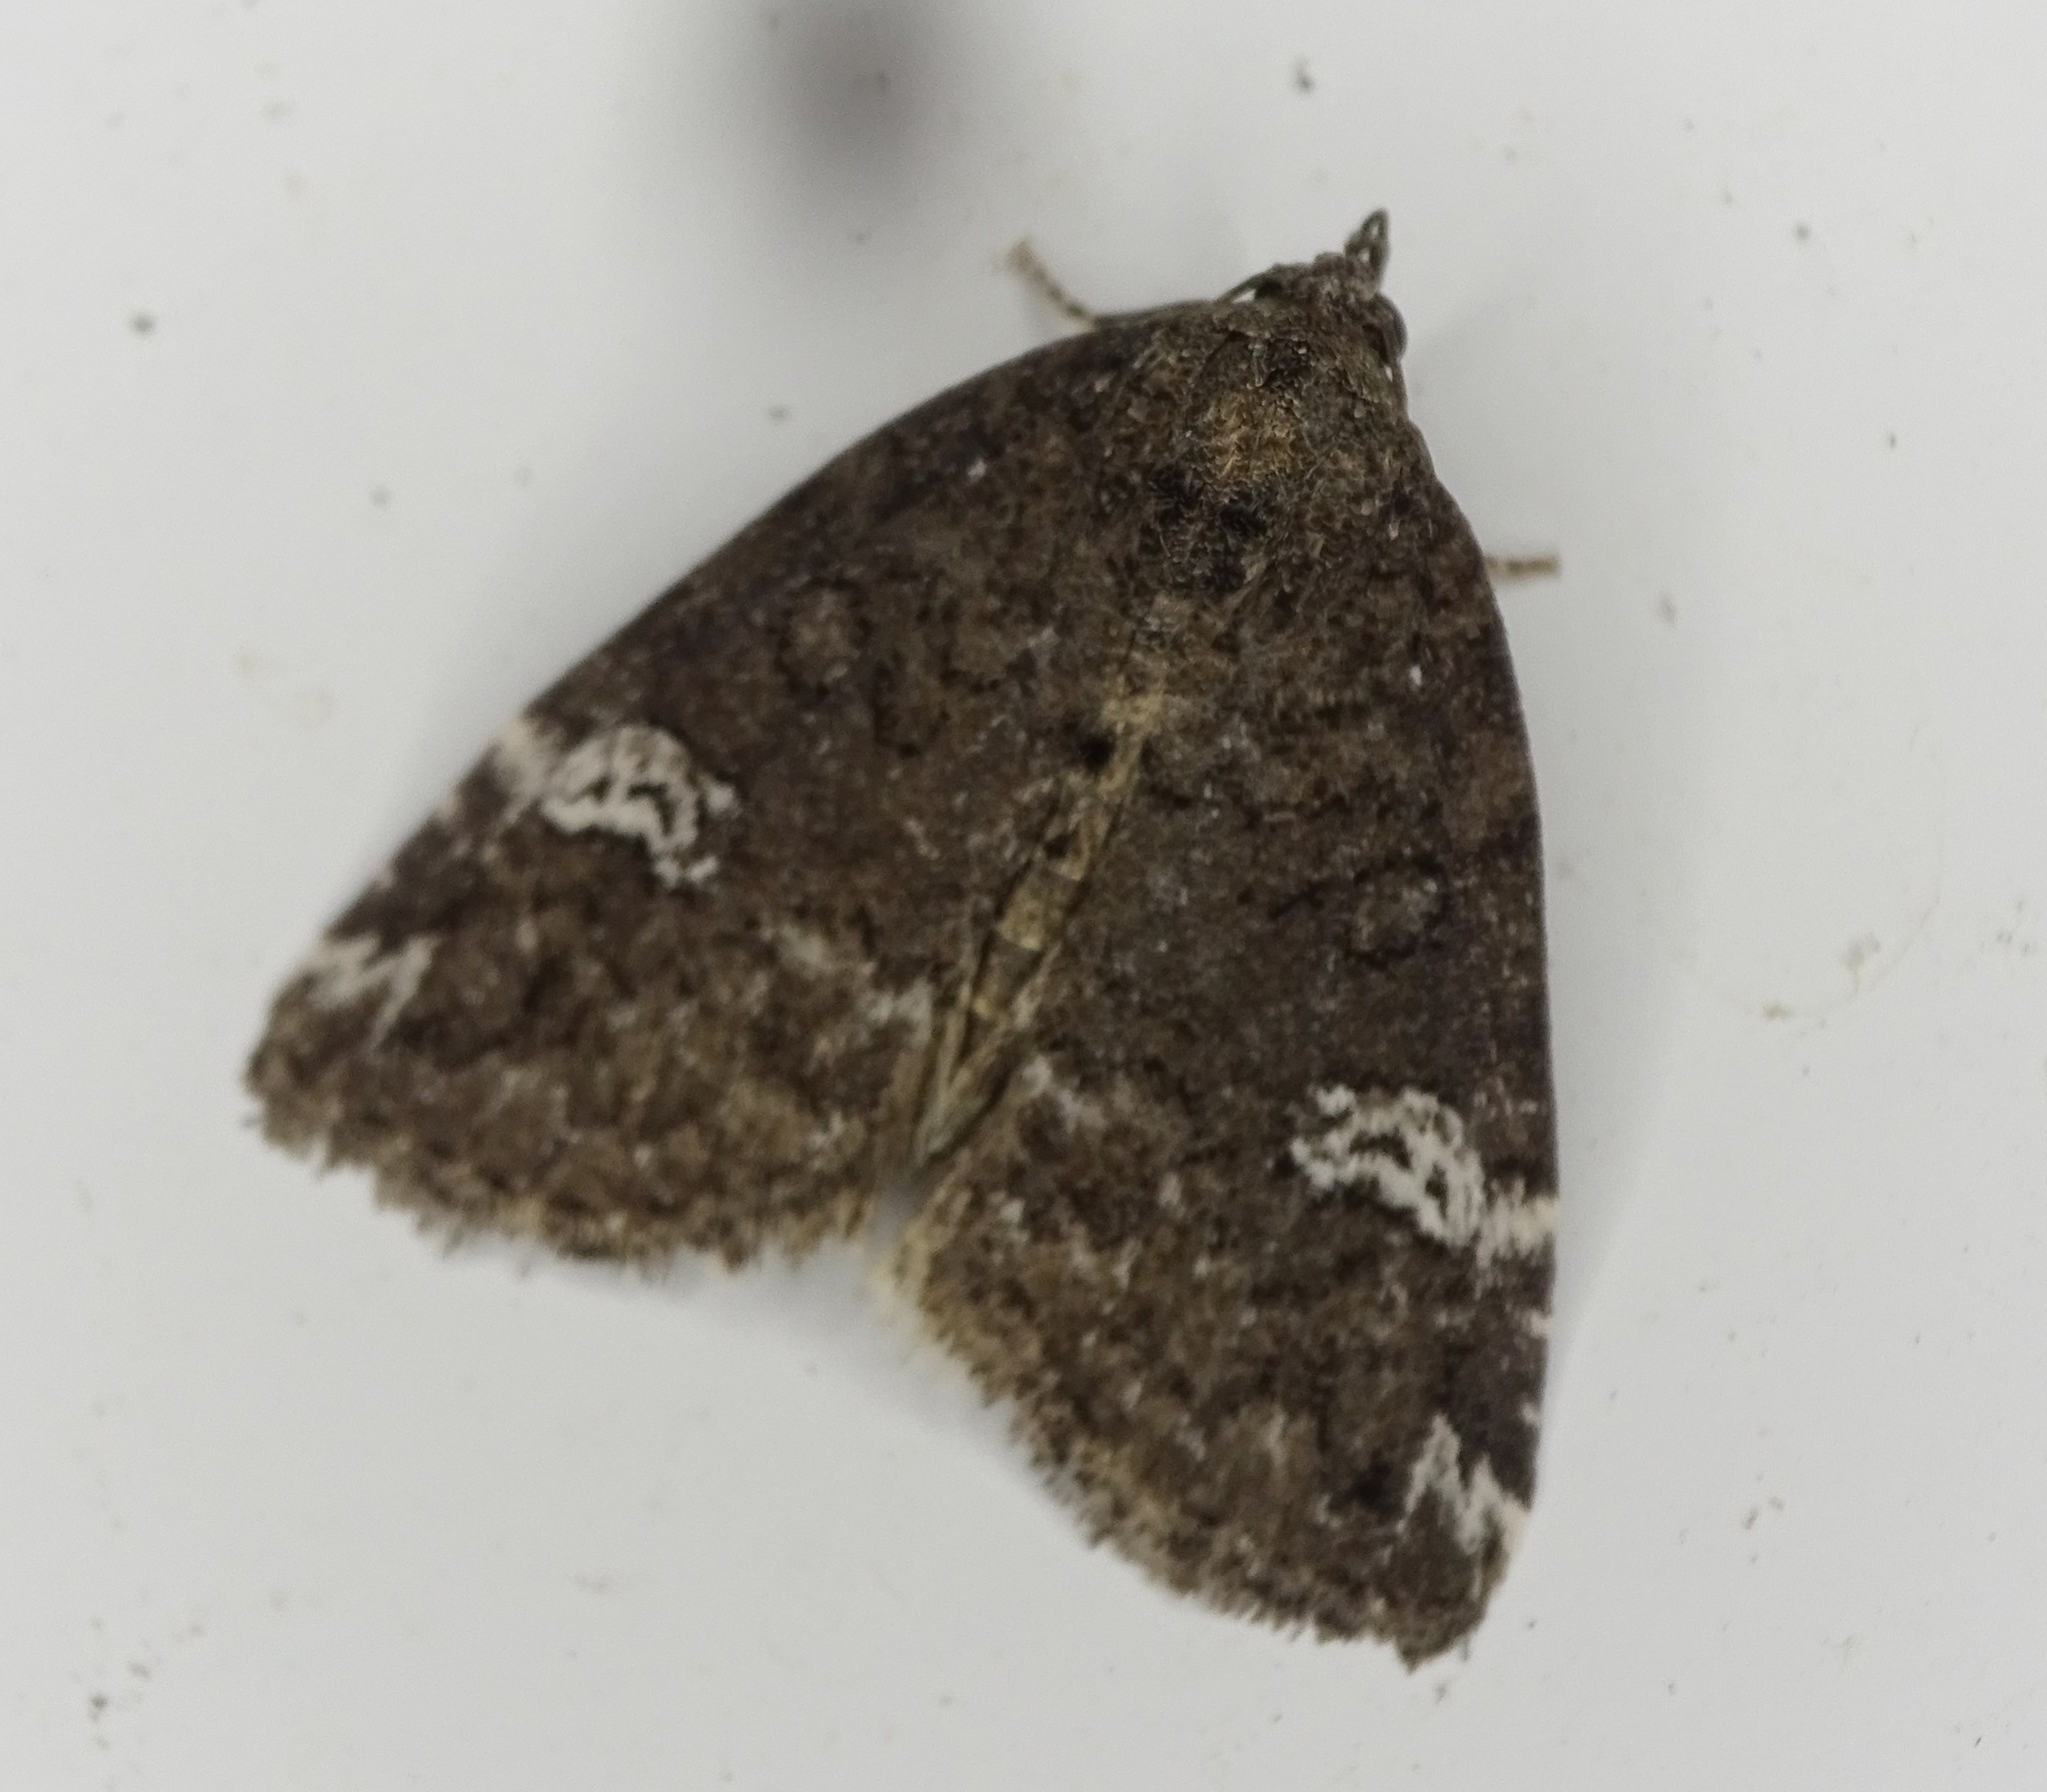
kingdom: Animalia
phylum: Arthropoda
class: Insecta
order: Lepidoptera
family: Noctuidae
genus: Anterastria
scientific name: Anterastria teratophora
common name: Gray marvel moth
